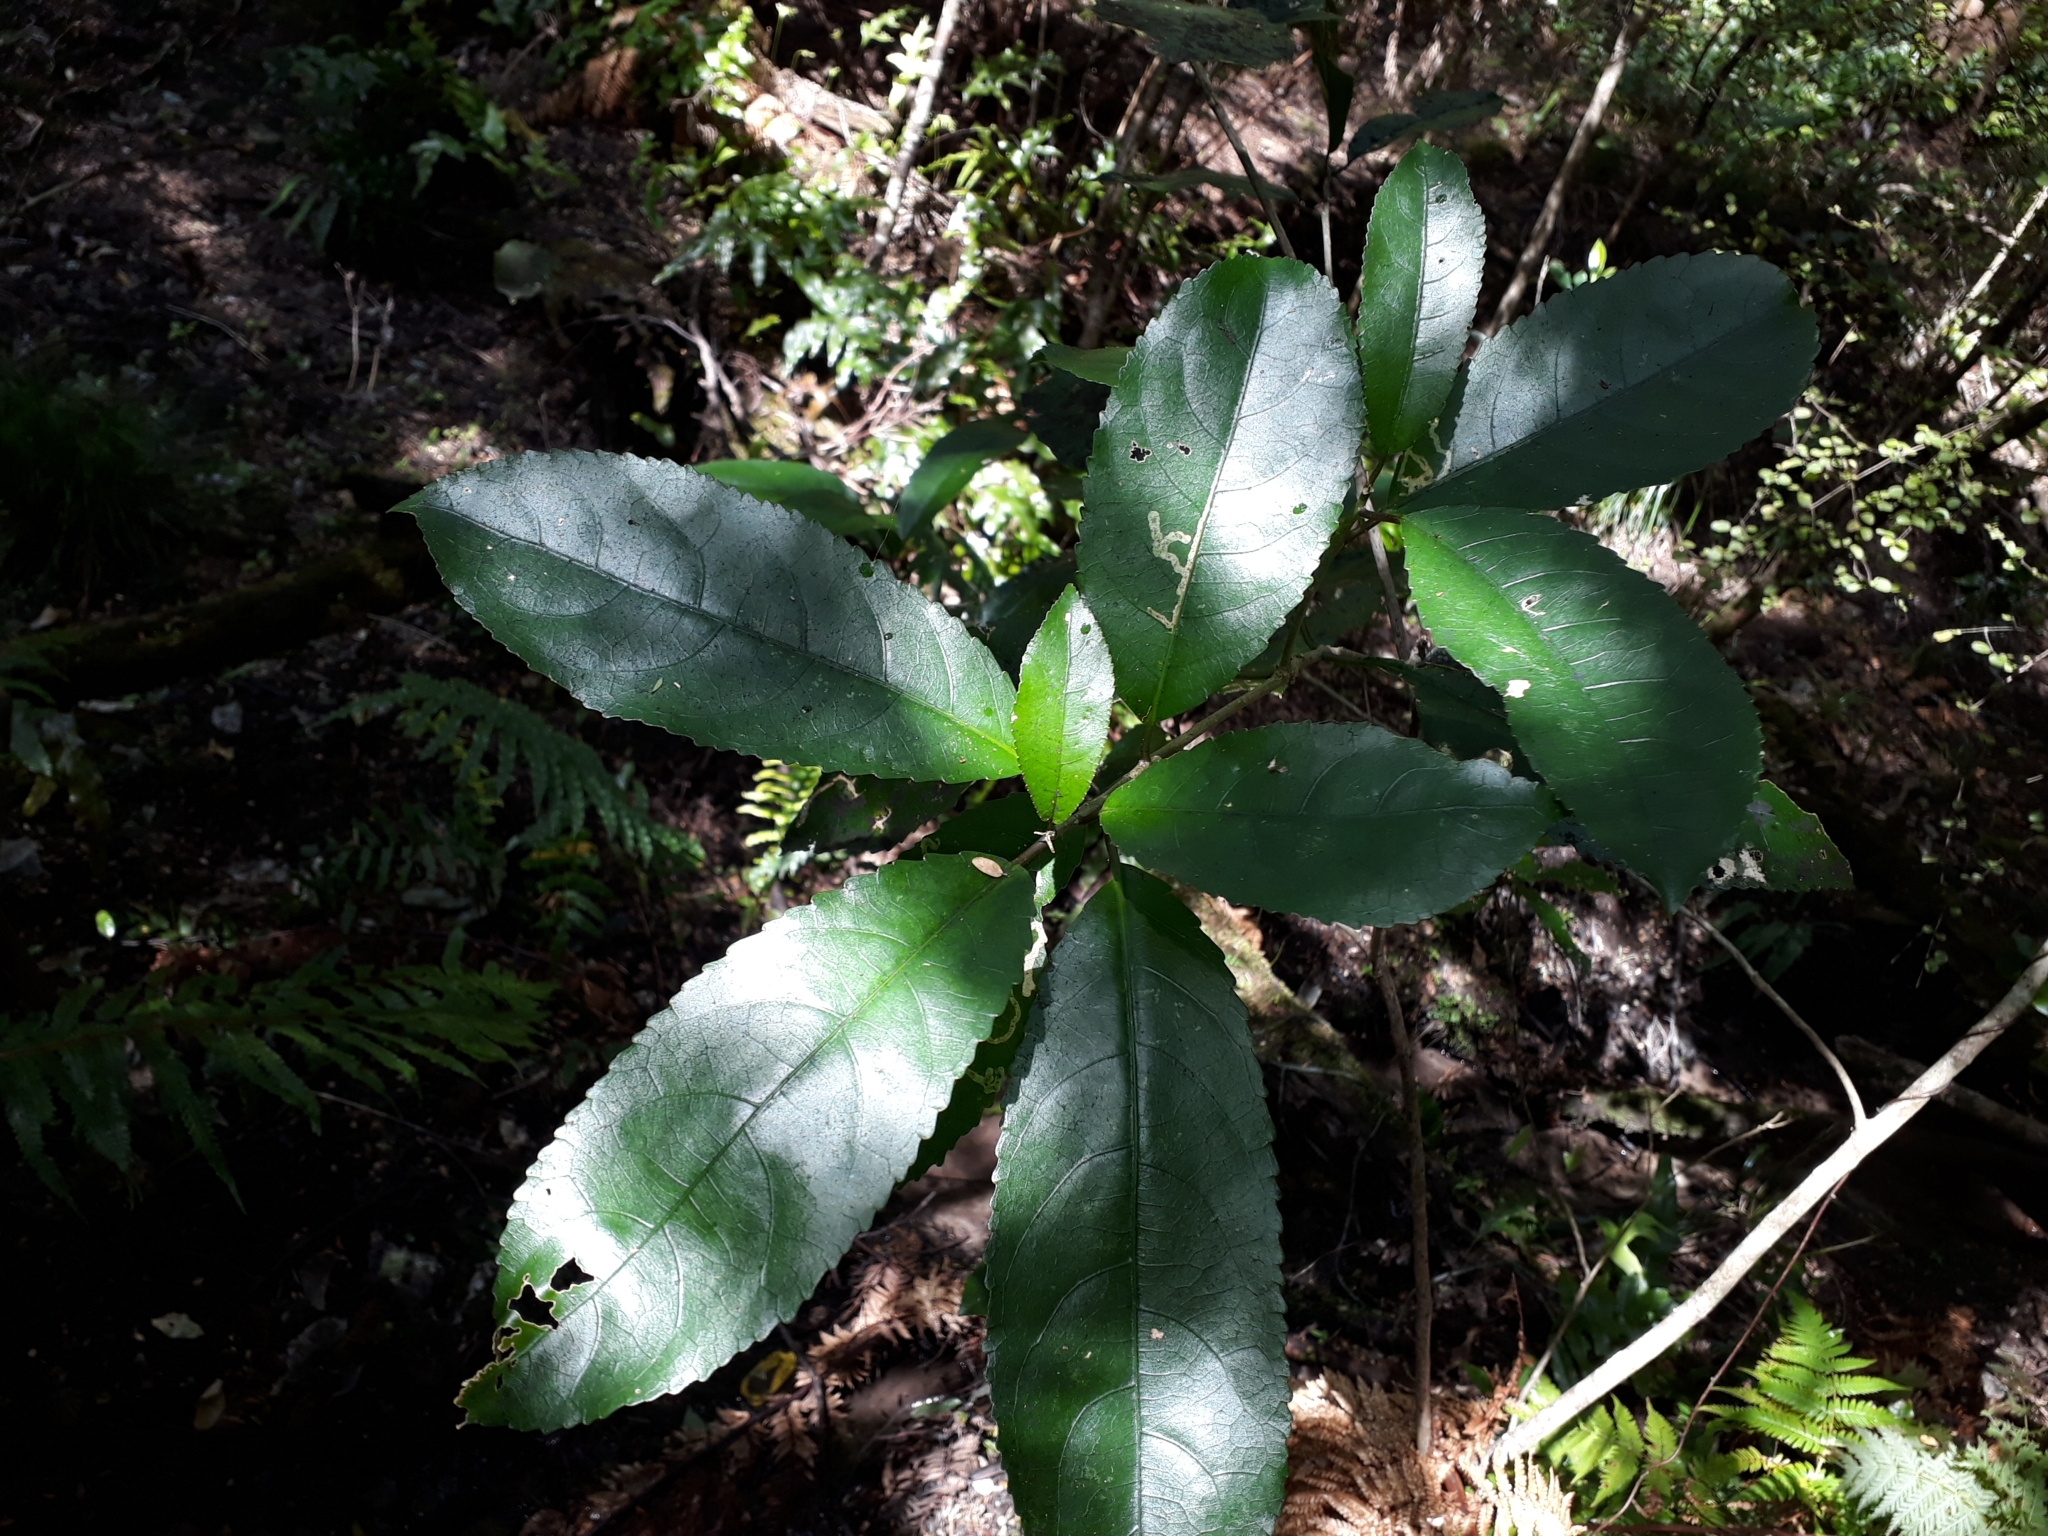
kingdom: Plantae
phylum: Tracheophyta
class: Magnoliopsida
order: Malpighiales
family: Violaceae
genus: Melicytus
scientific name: Melicytus ramiflorus
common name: Mahoe
